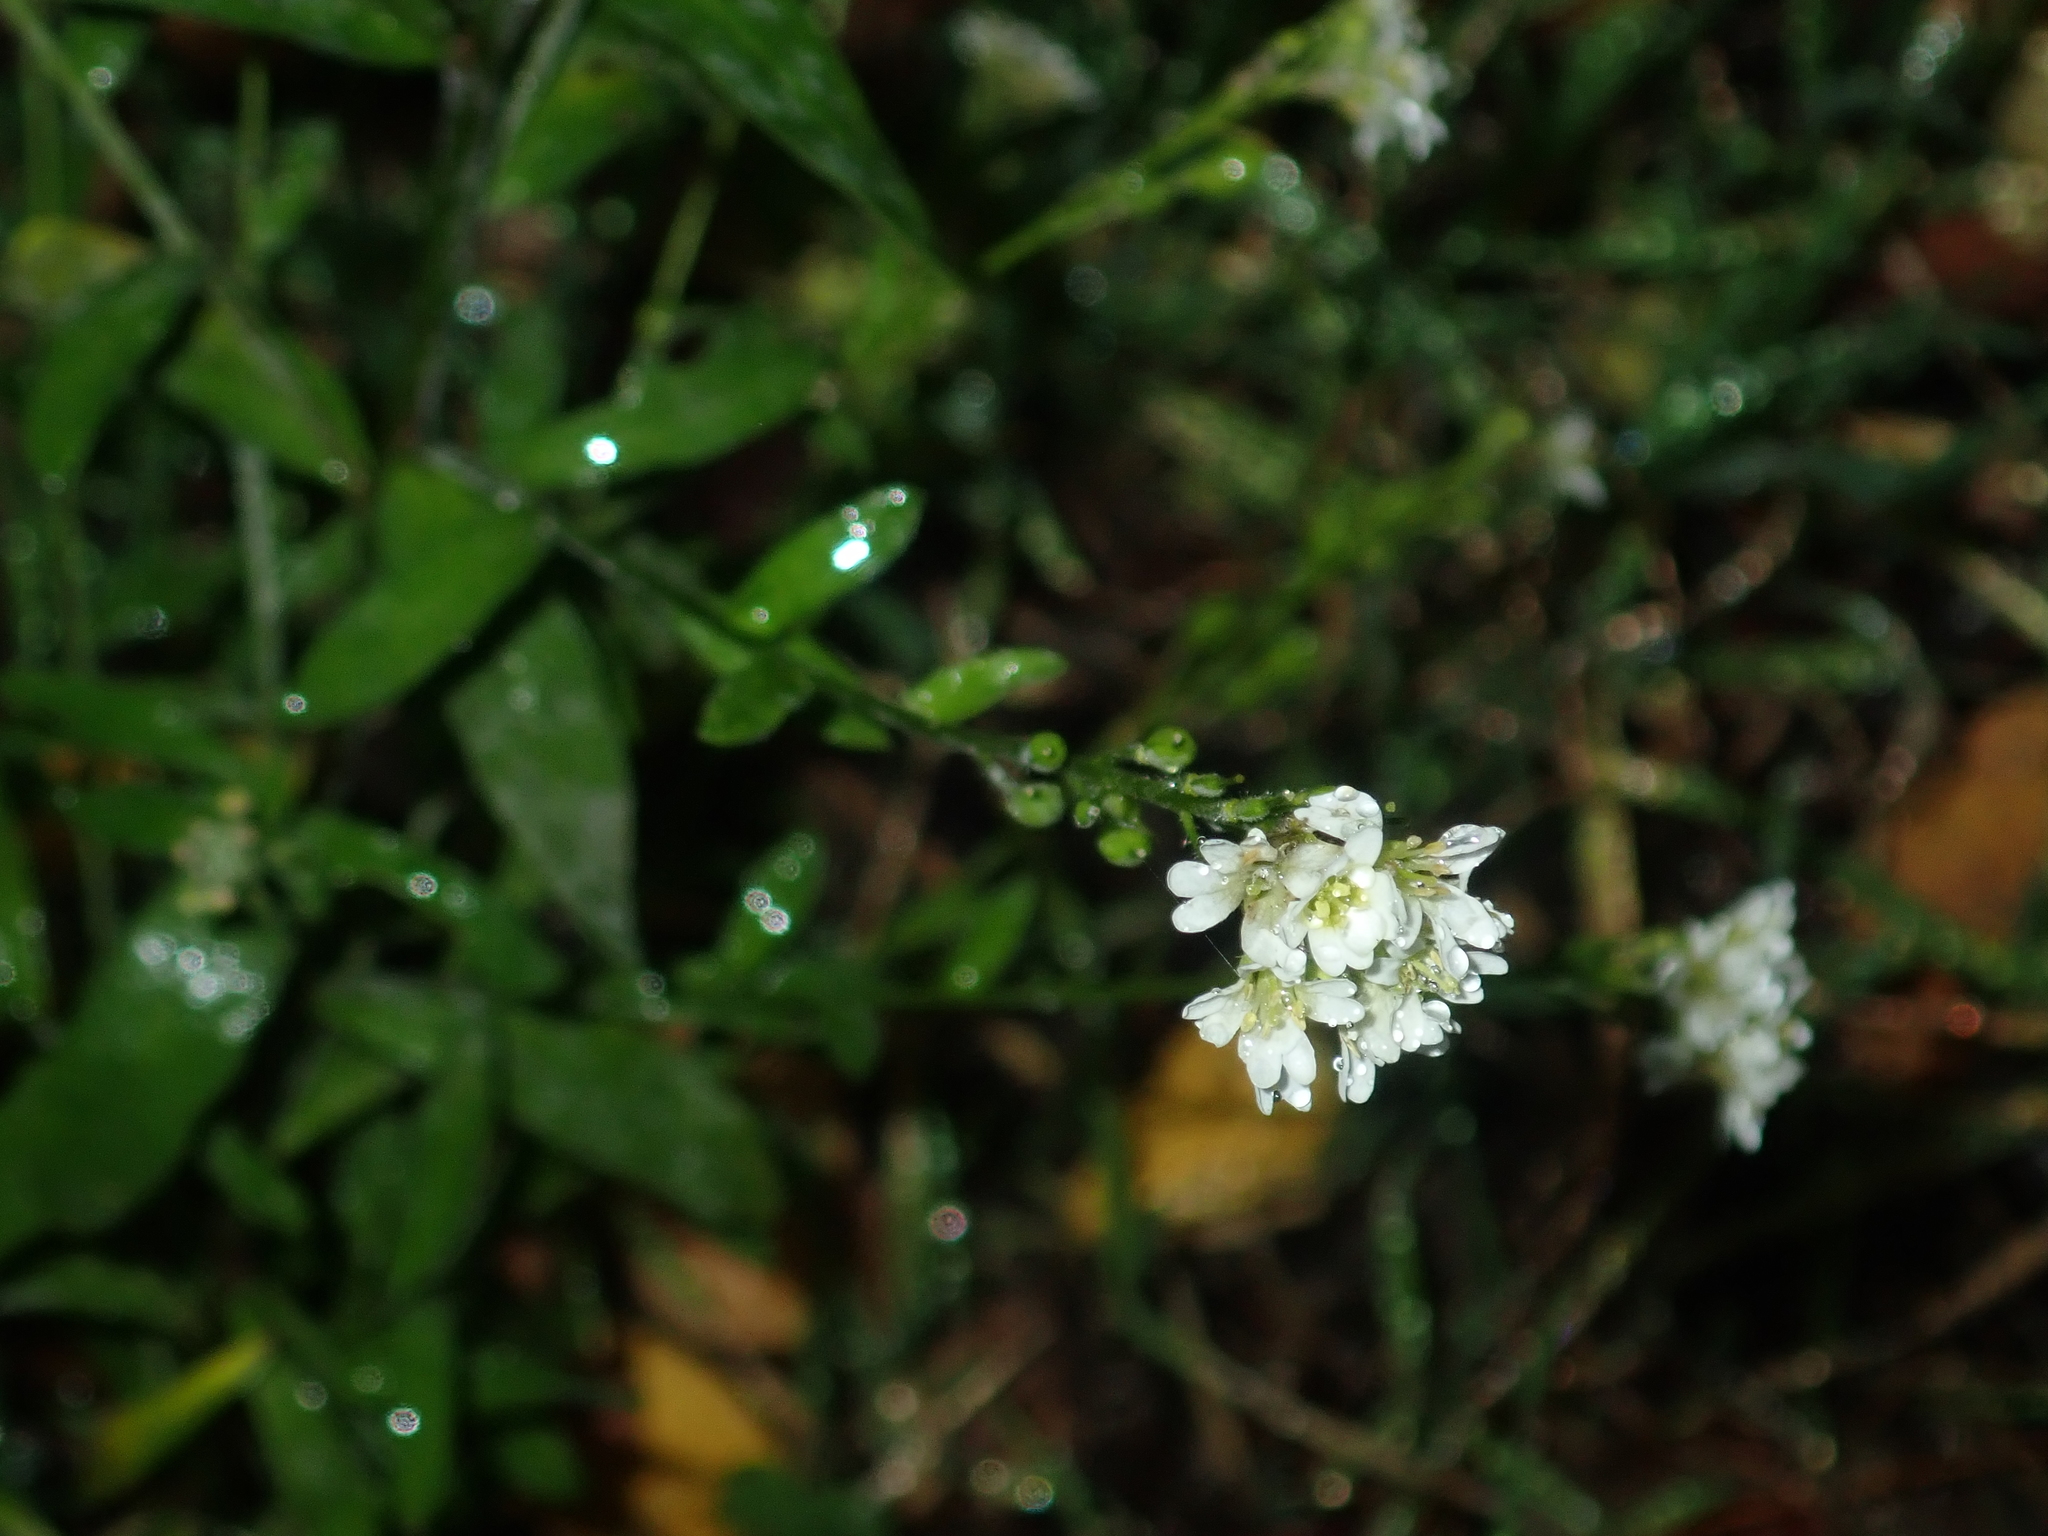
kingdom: Plantae
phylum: Tracheophyta
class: Magnoliopsida
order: Brassicales
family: Brassicaceae
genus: Berteroa
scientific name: Berteroa incana
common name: Hoary alison
